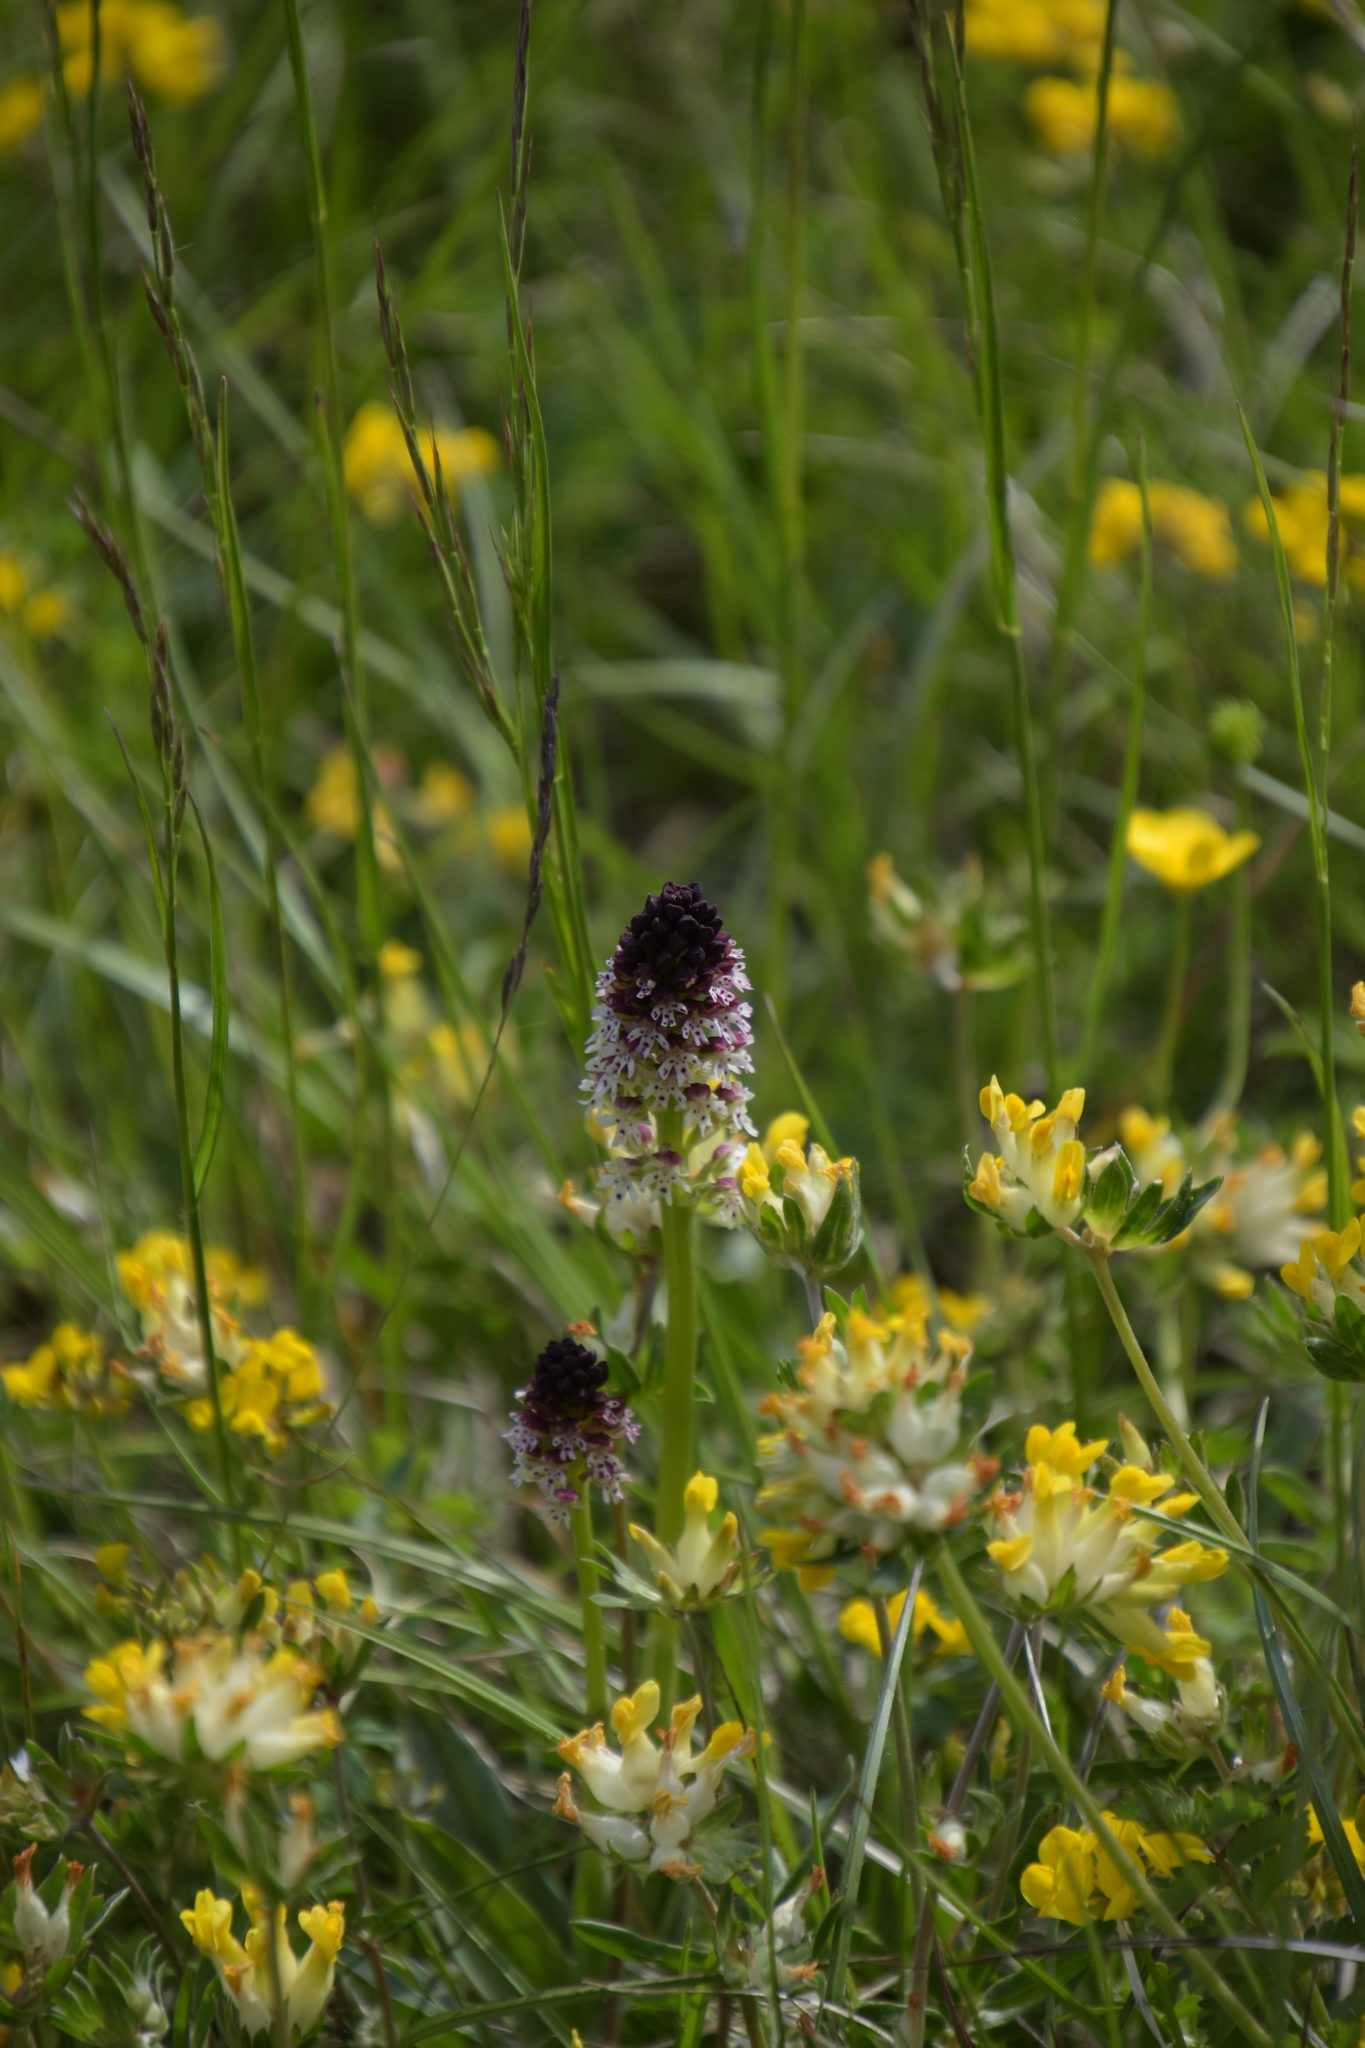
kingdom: Plantae
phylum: Tracheophyta
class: Liliopsida
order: Asparagales
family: Orchidaceae
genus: Neotinea
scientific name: Neotinea ustulata
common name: Burnt orchid
